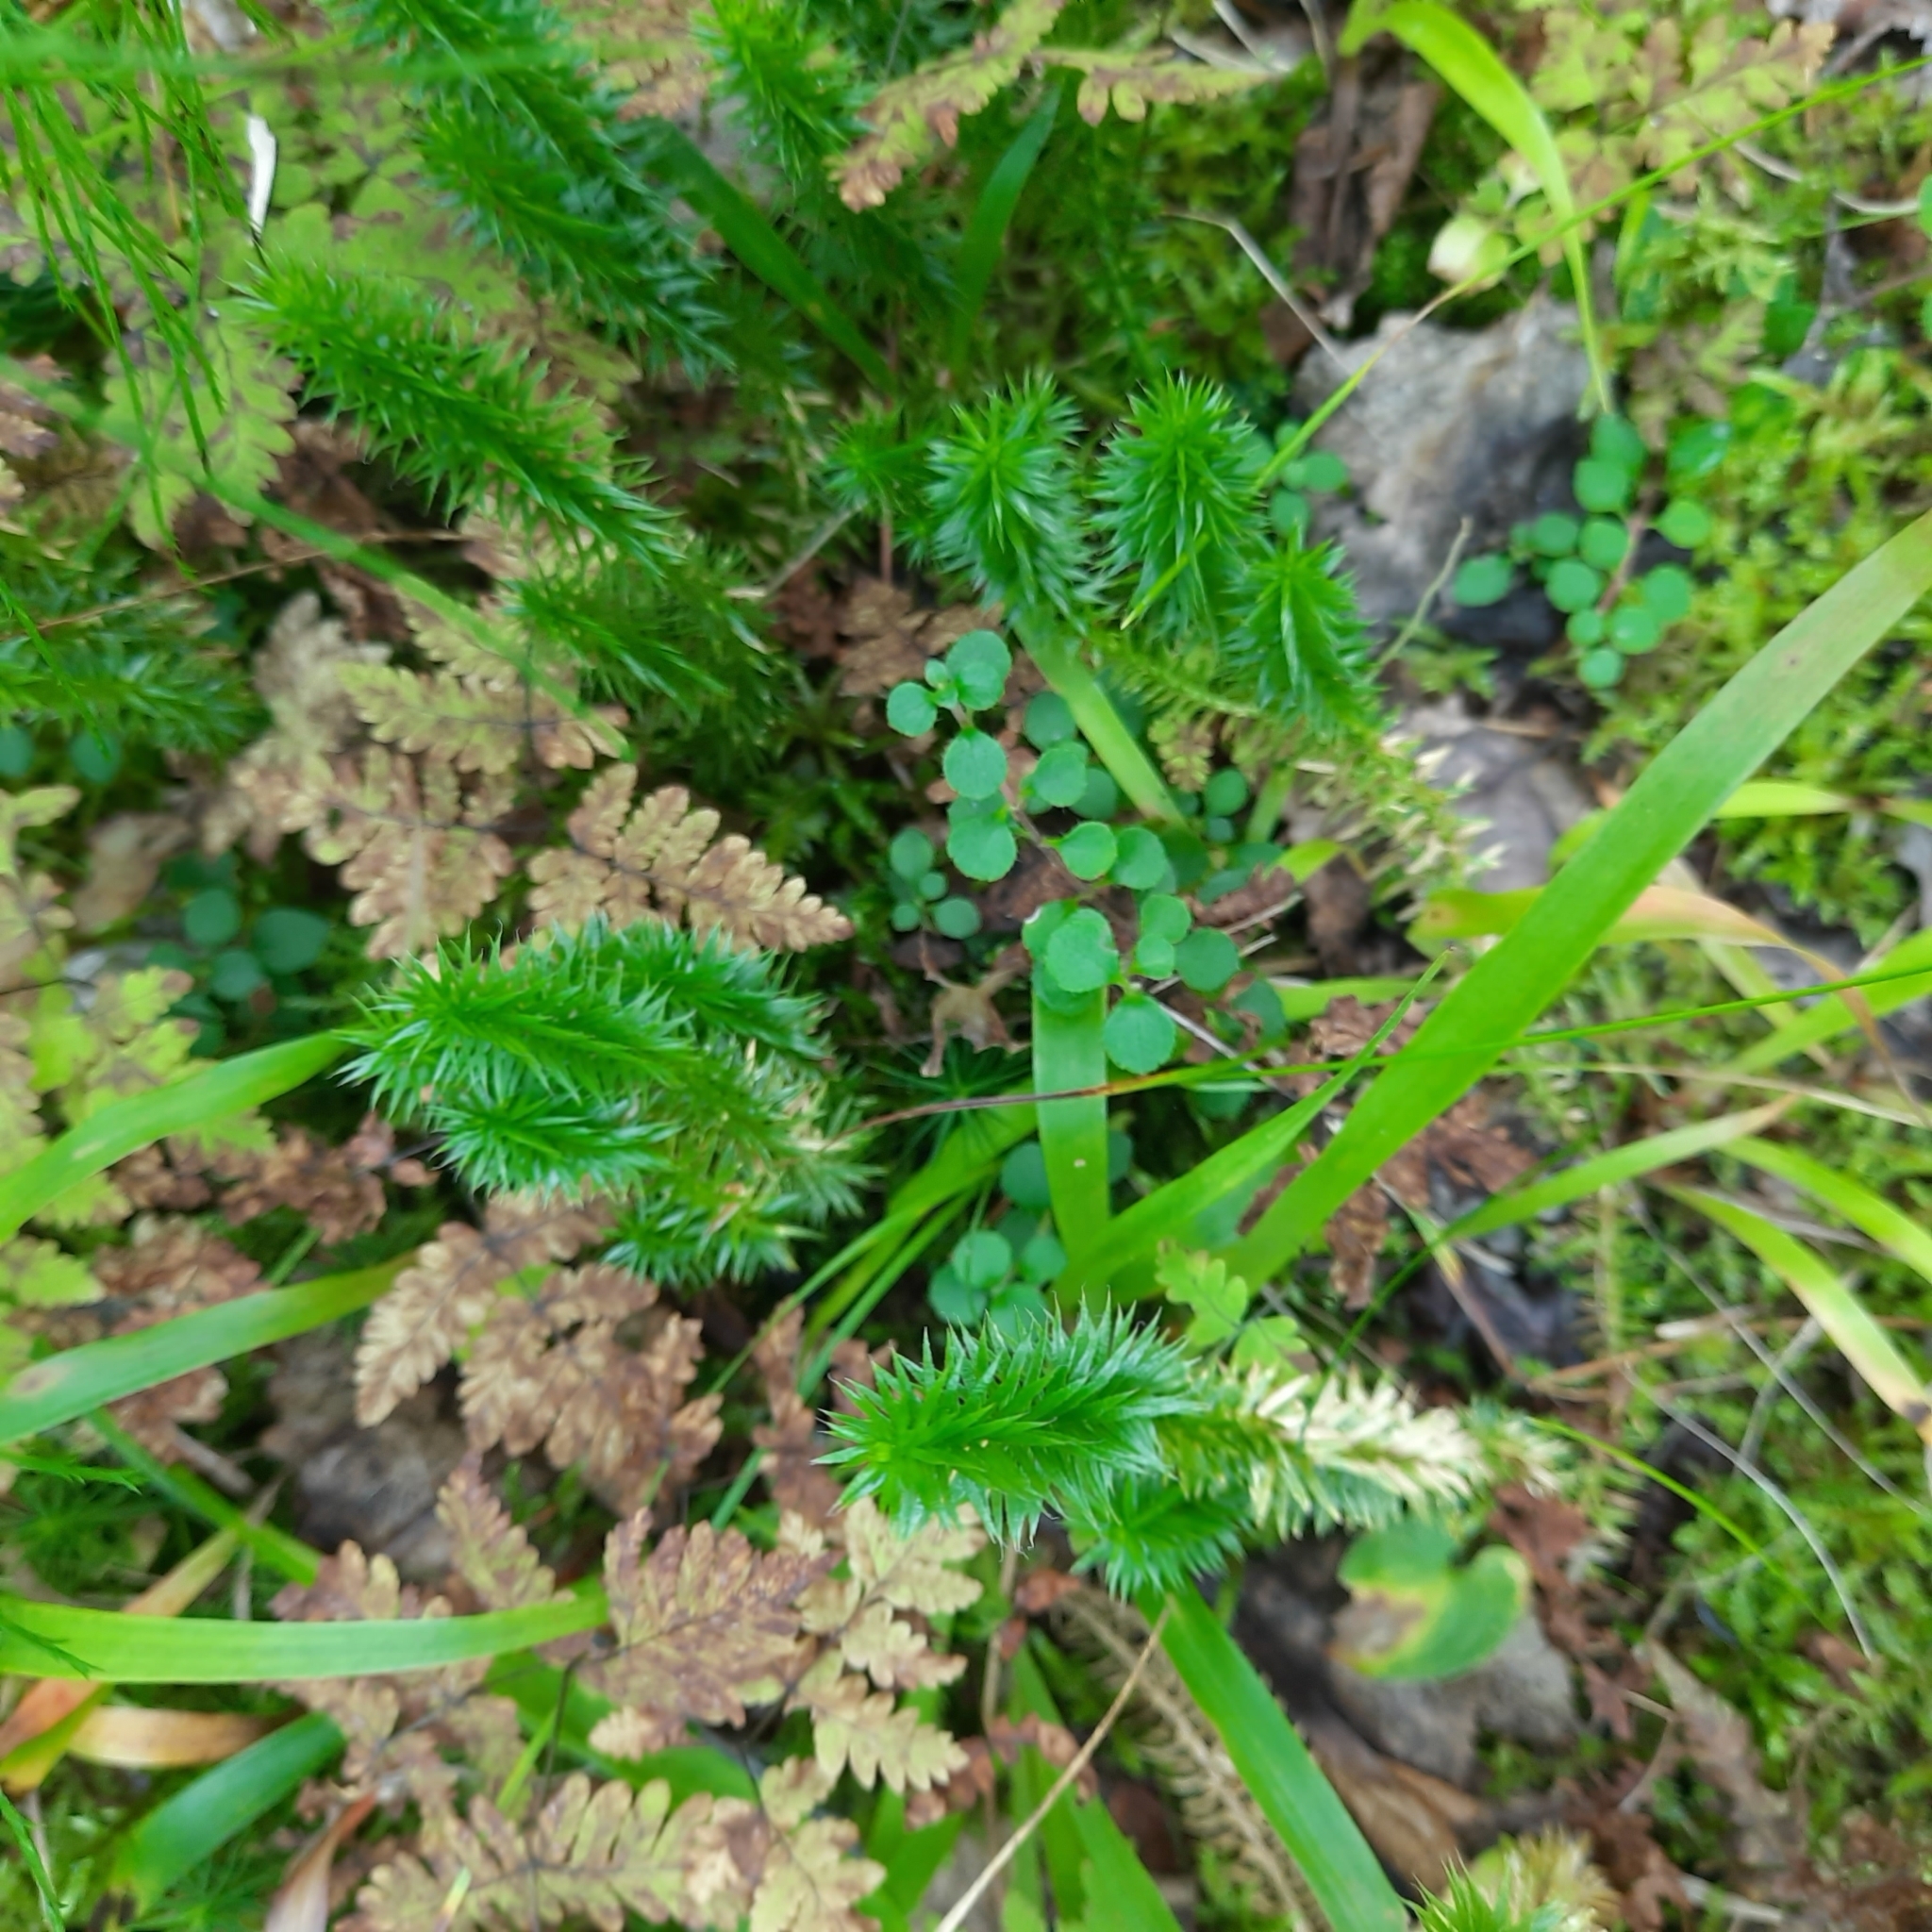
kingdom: Plantae
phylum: Tracheophyta
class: Lycopodiopsida
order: Lycopodiales
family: Lycopodiaceae
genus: Spinulum
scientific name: Spinulum annotinum
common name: Interrupted club-moss
